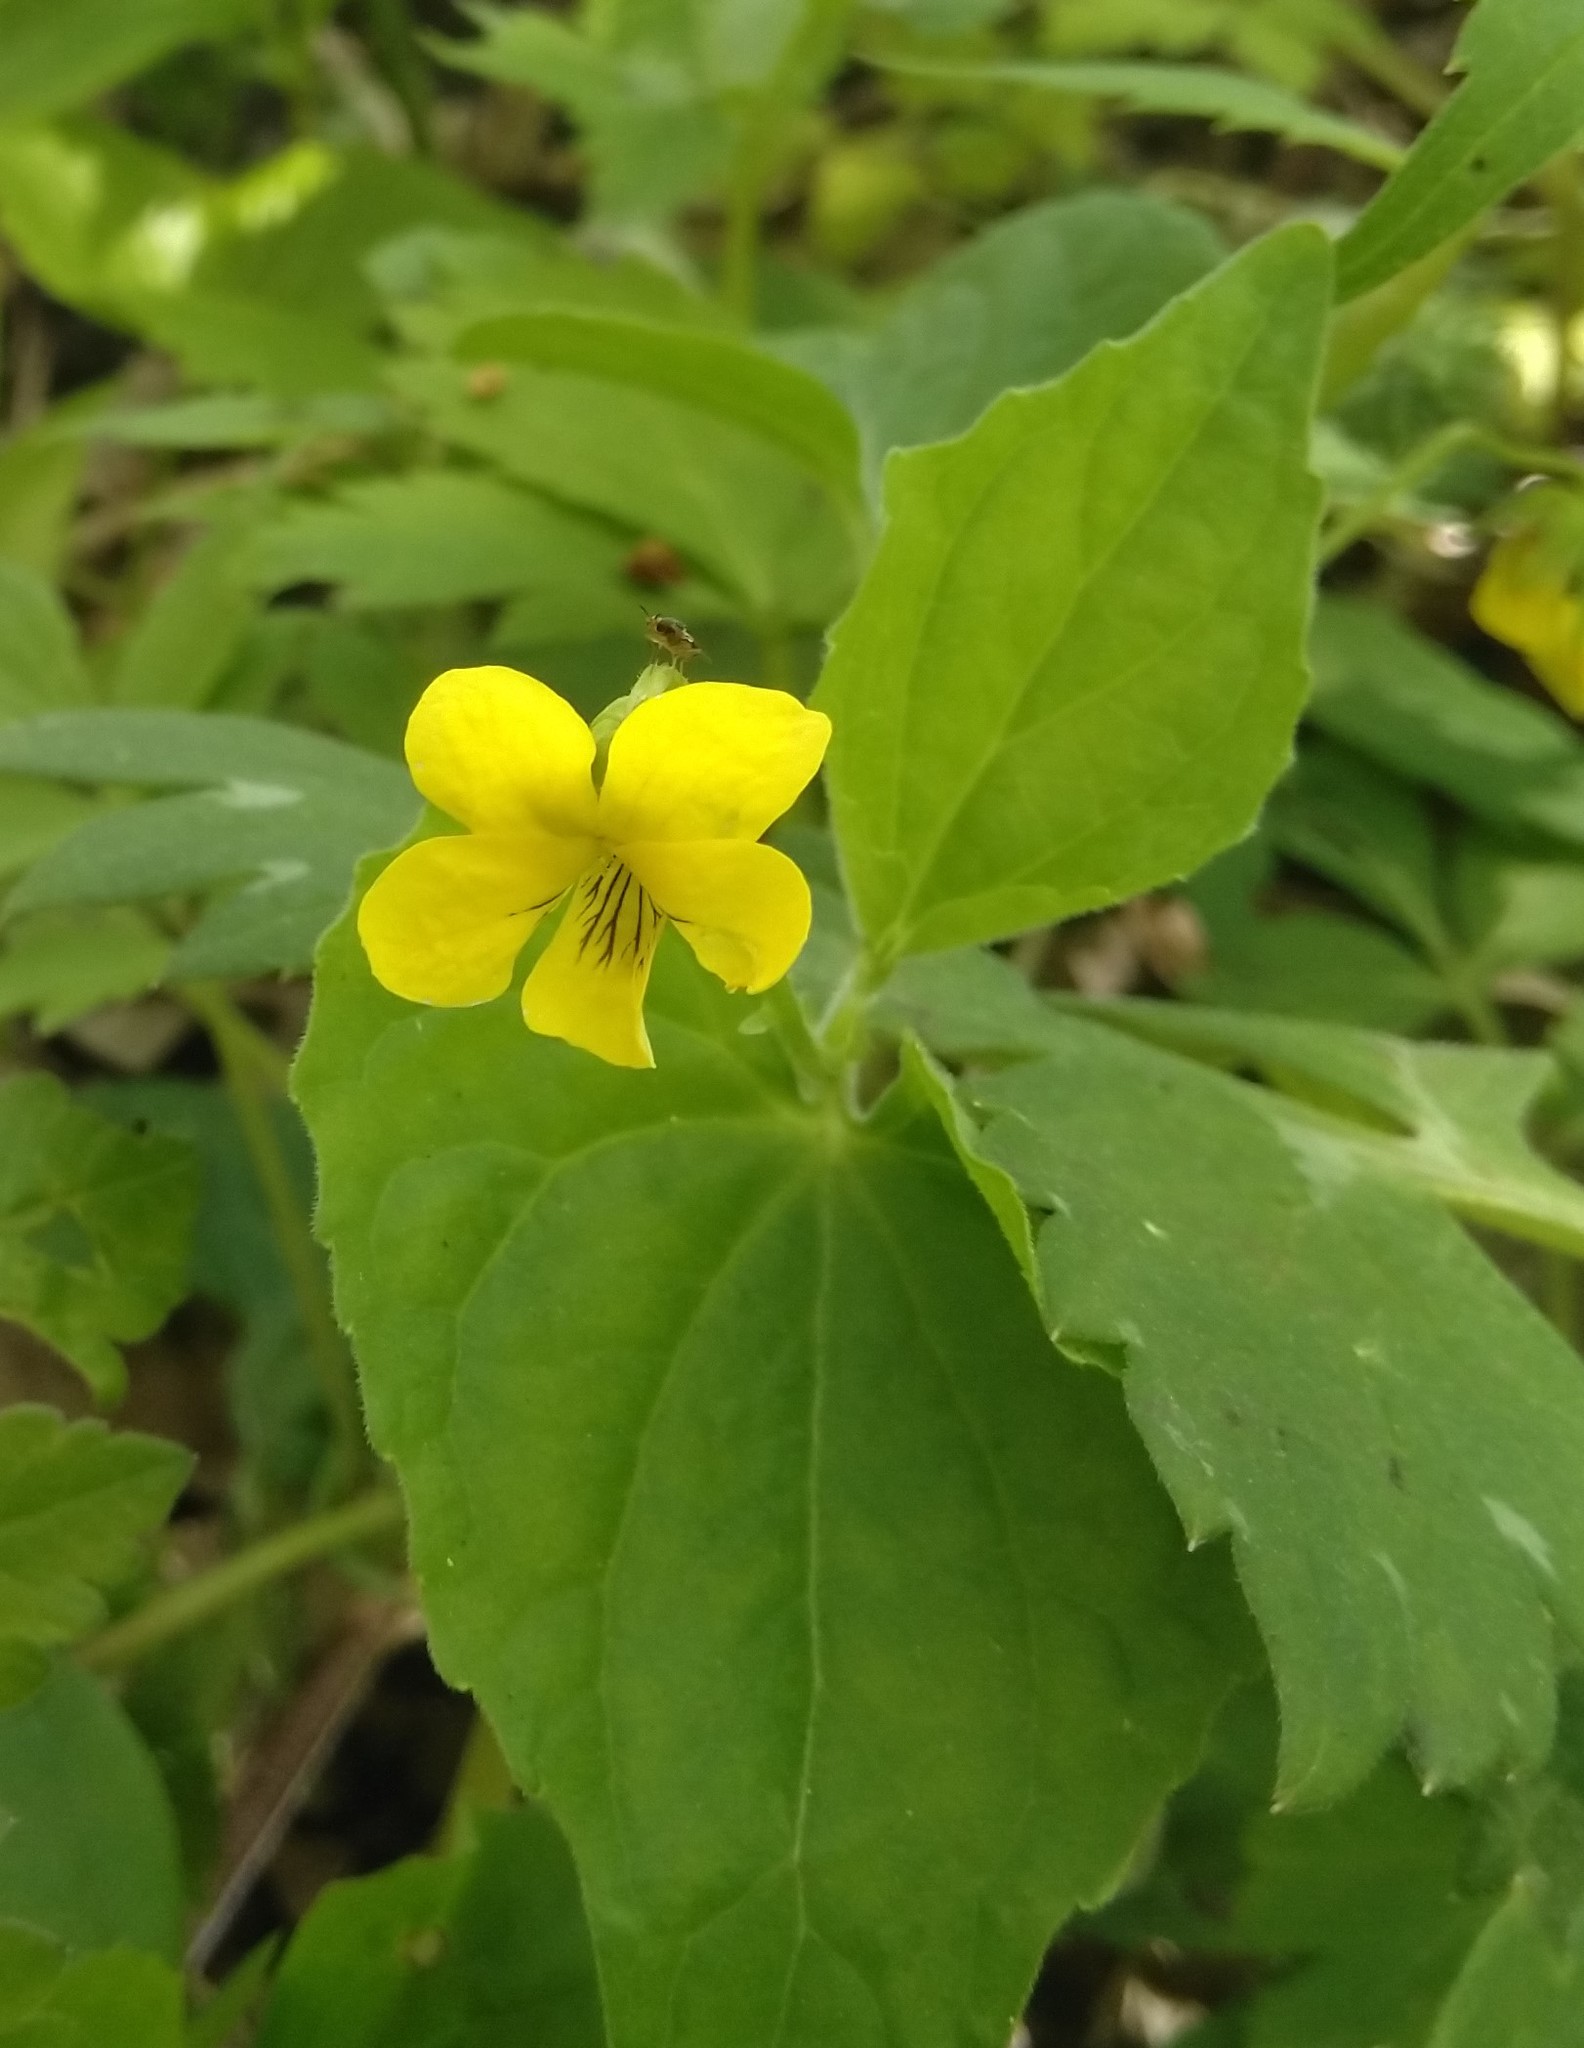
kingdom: Plantae
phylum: Tracheophyta
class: Magnoliopsida
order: Malpighiales
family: Violaceae
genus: Viola
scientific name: Viola eriocarpa
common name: Smooth yellow violet
